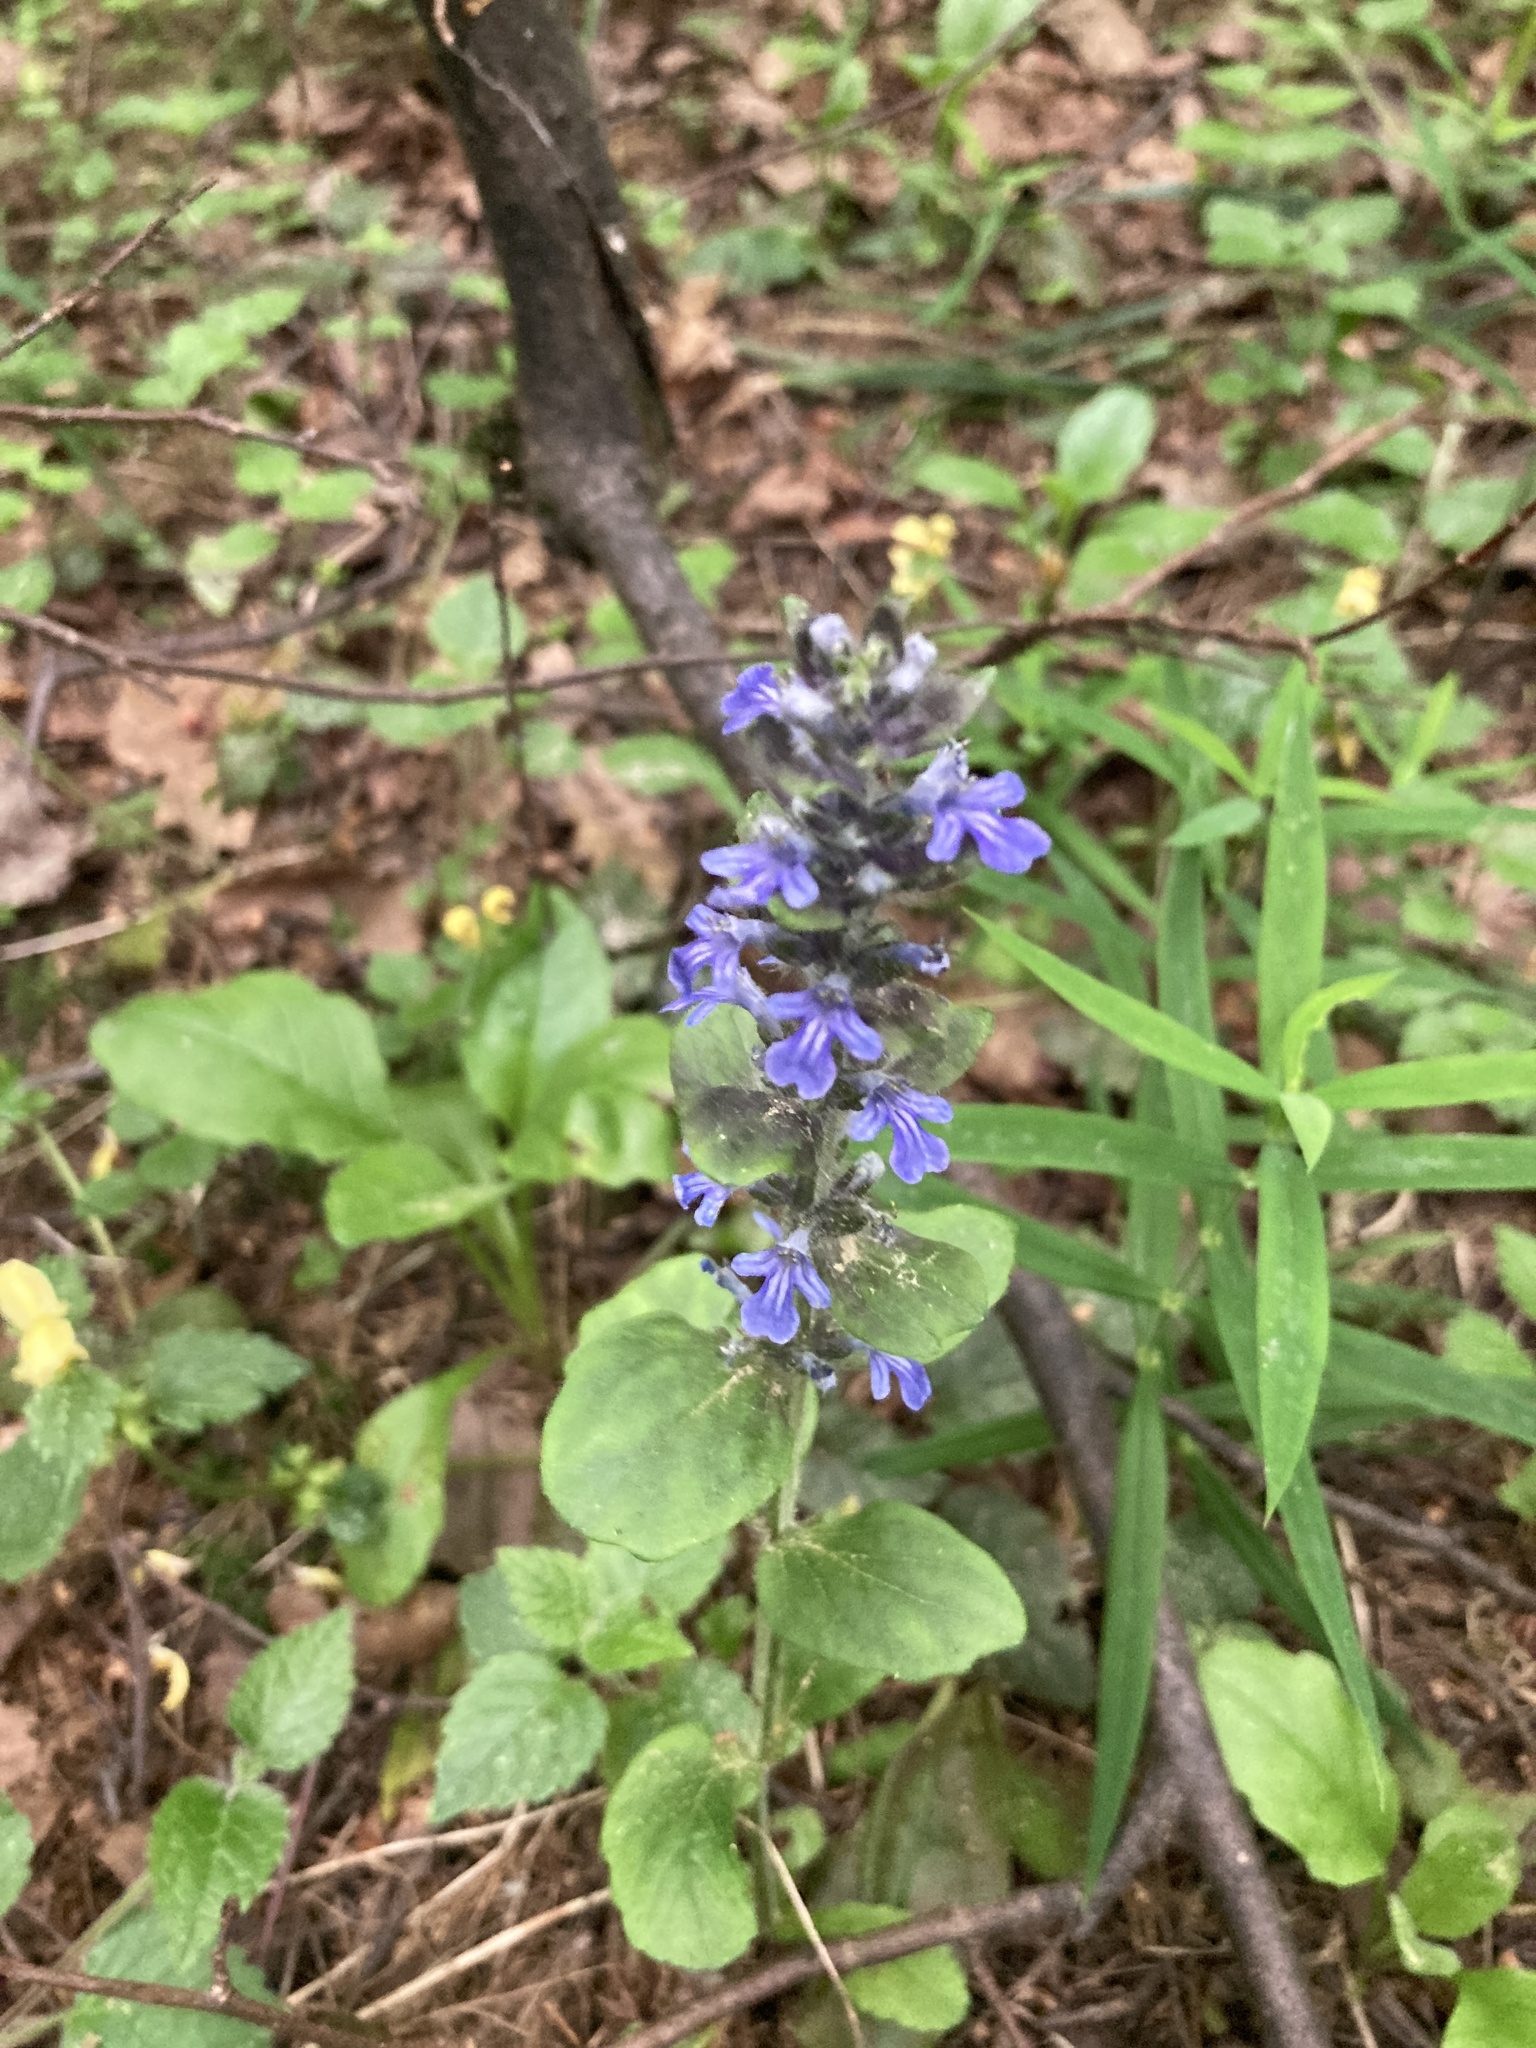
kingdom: Plantae
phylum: Tracheophyta
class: Magnoliopsida
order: Lamiales
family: Lamiaceae
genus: Ajuga
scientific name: Ajuga reptans
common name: Bugle
